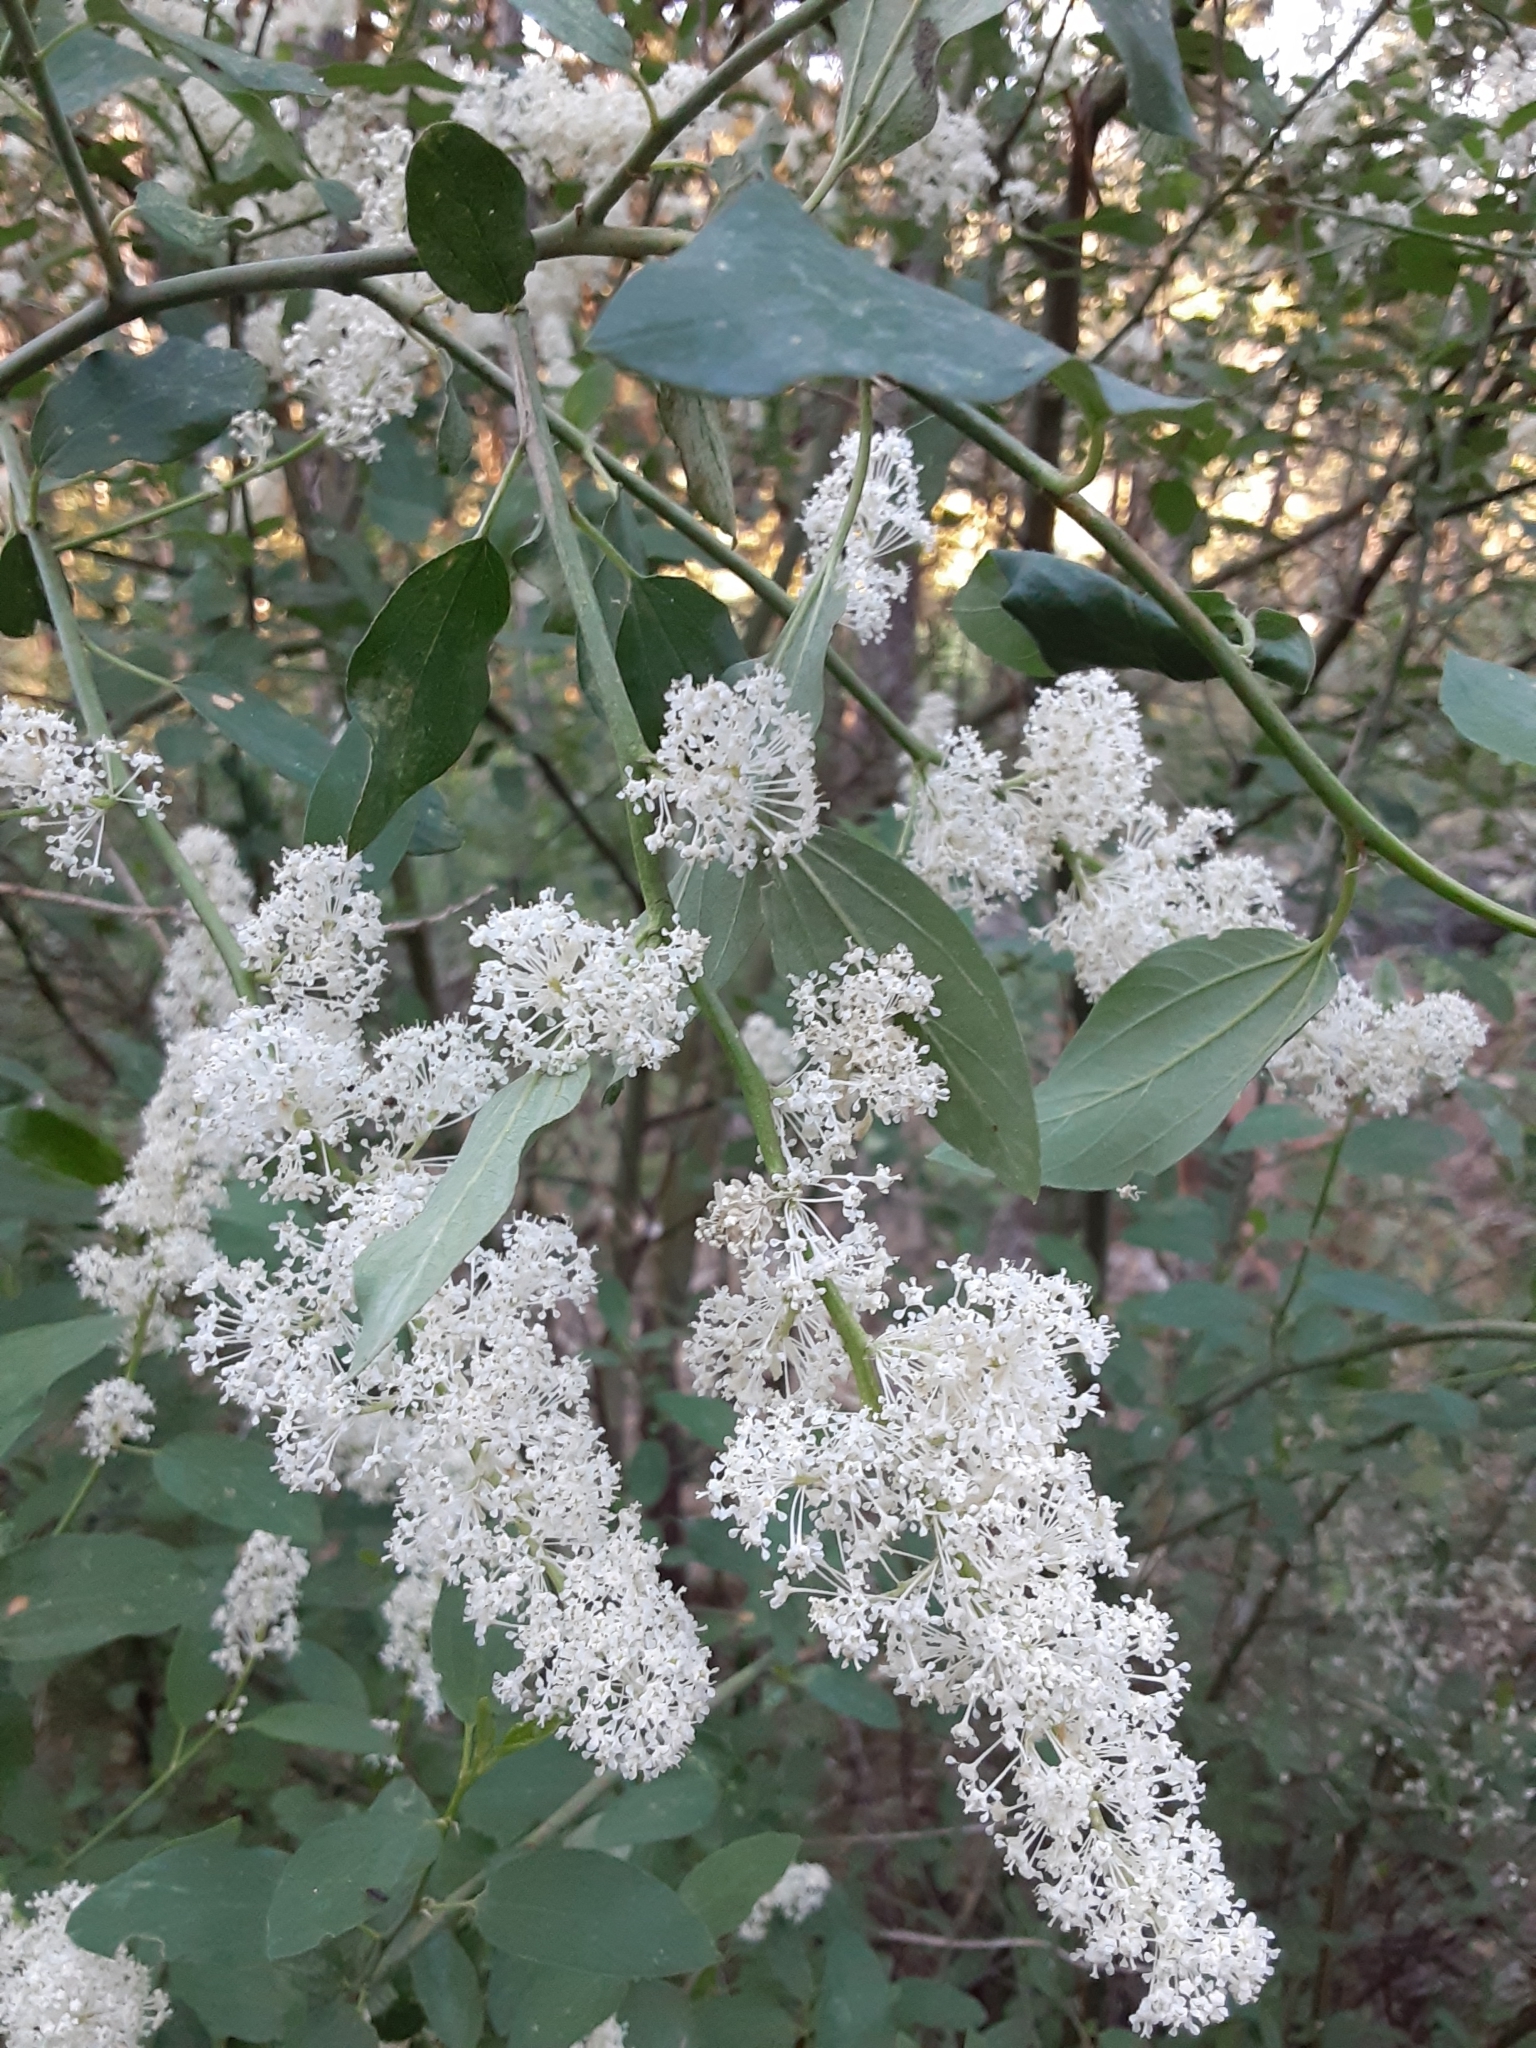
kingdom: Plantae
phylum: Tracheophyta
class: Magnoliopsida
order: Rosales
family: Rhamnaceae
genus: Ceanothus
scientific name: Ceanothus integerrimus
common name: Deerbrush ceanothus
